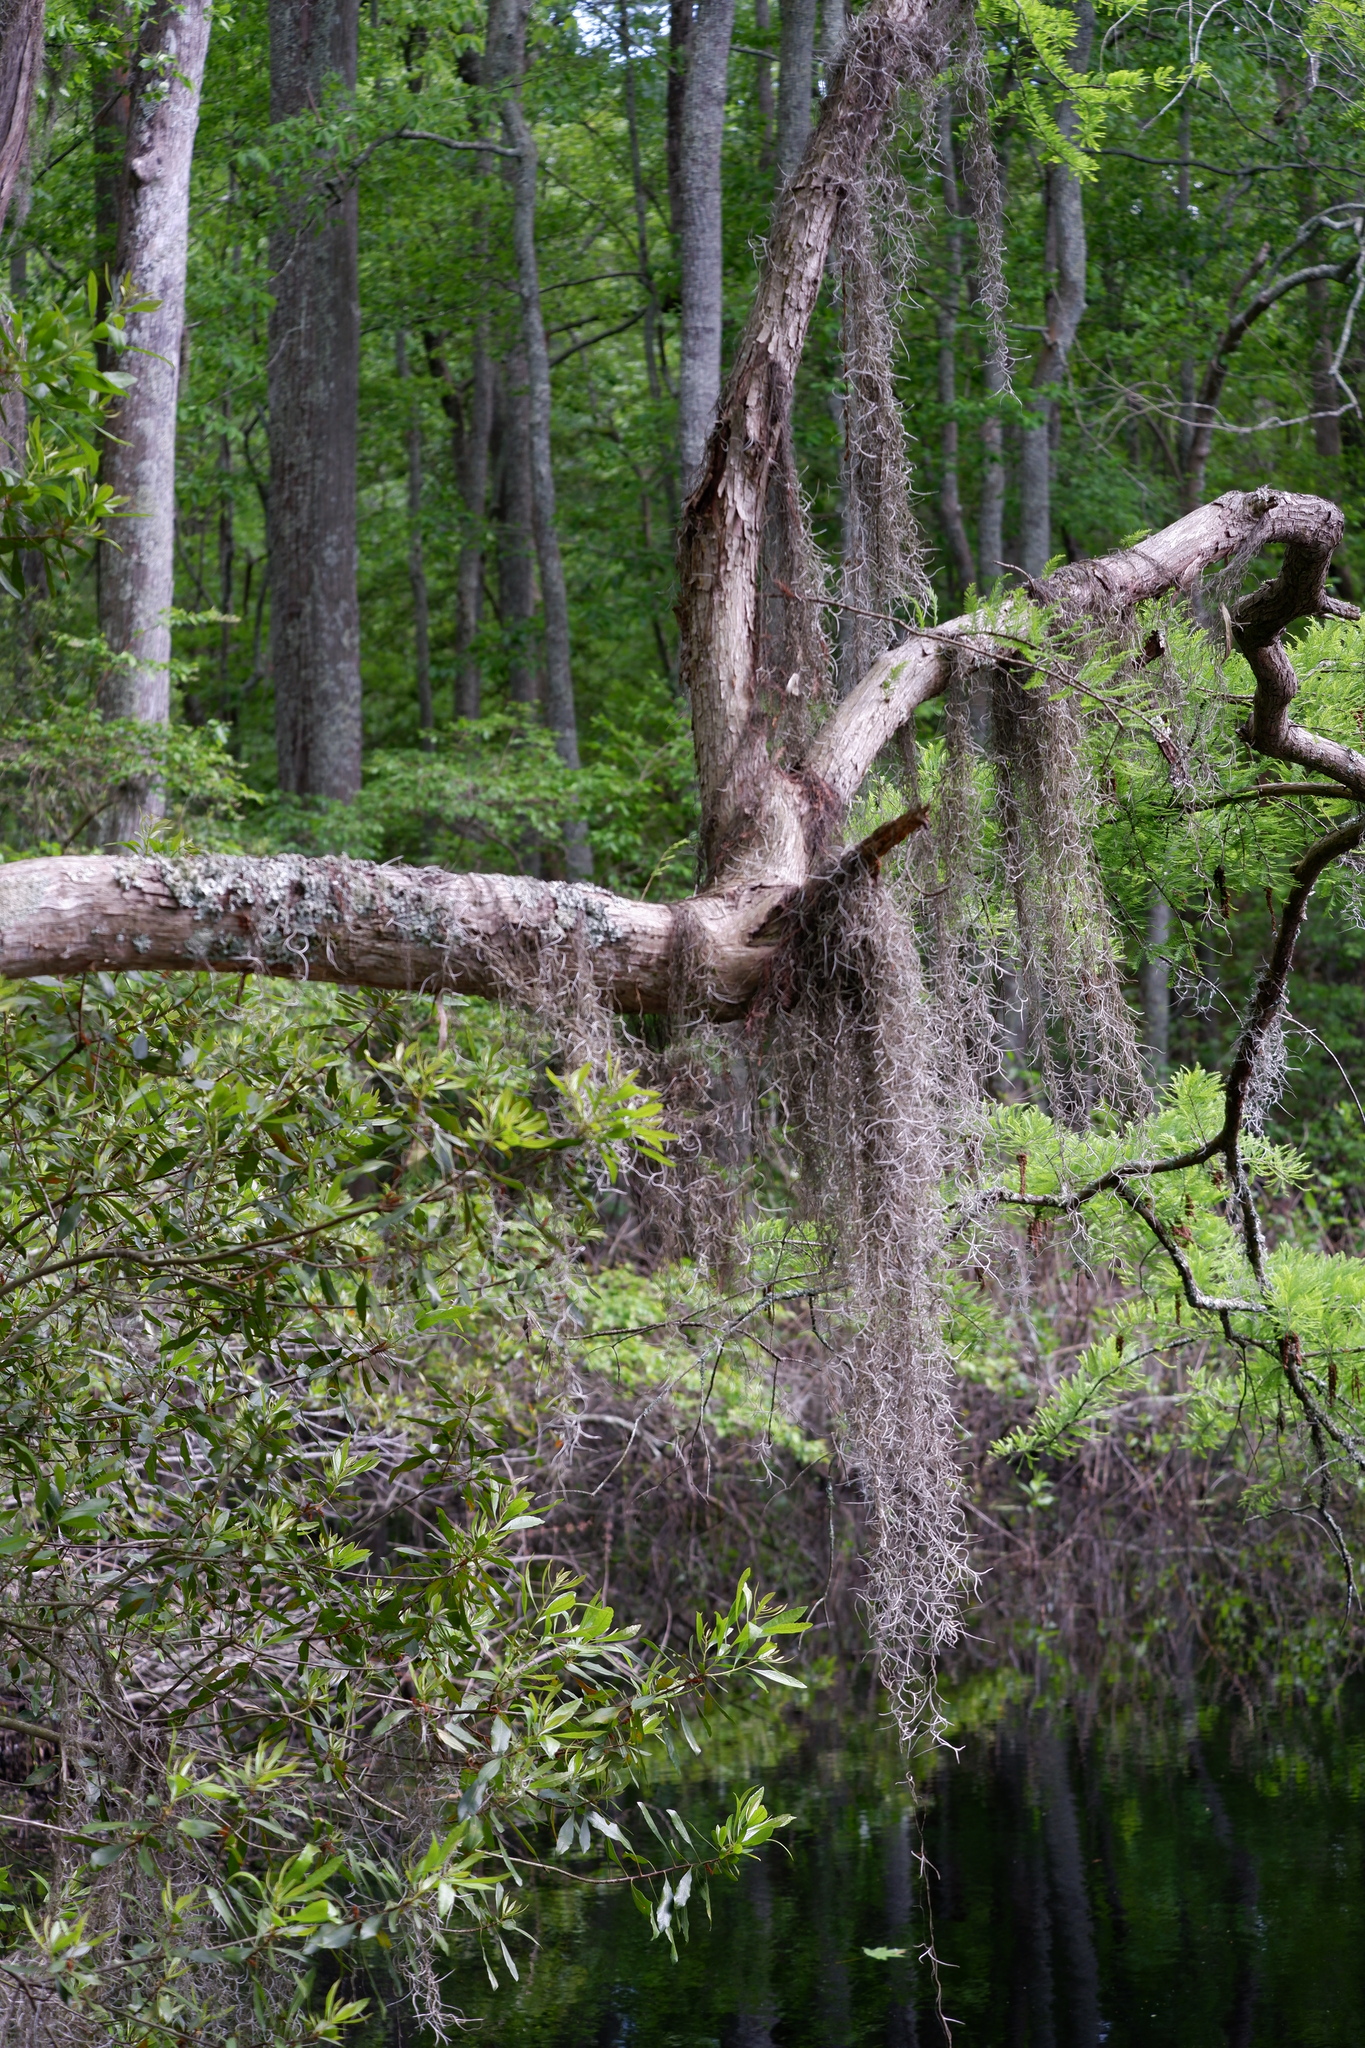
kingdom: Plantae
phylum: Tracheophyta
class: Liliopsida
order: Poales
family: Bromeliaceae
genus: Tillandsia
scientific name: Tillandsia usneoides
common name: Spanish moss
